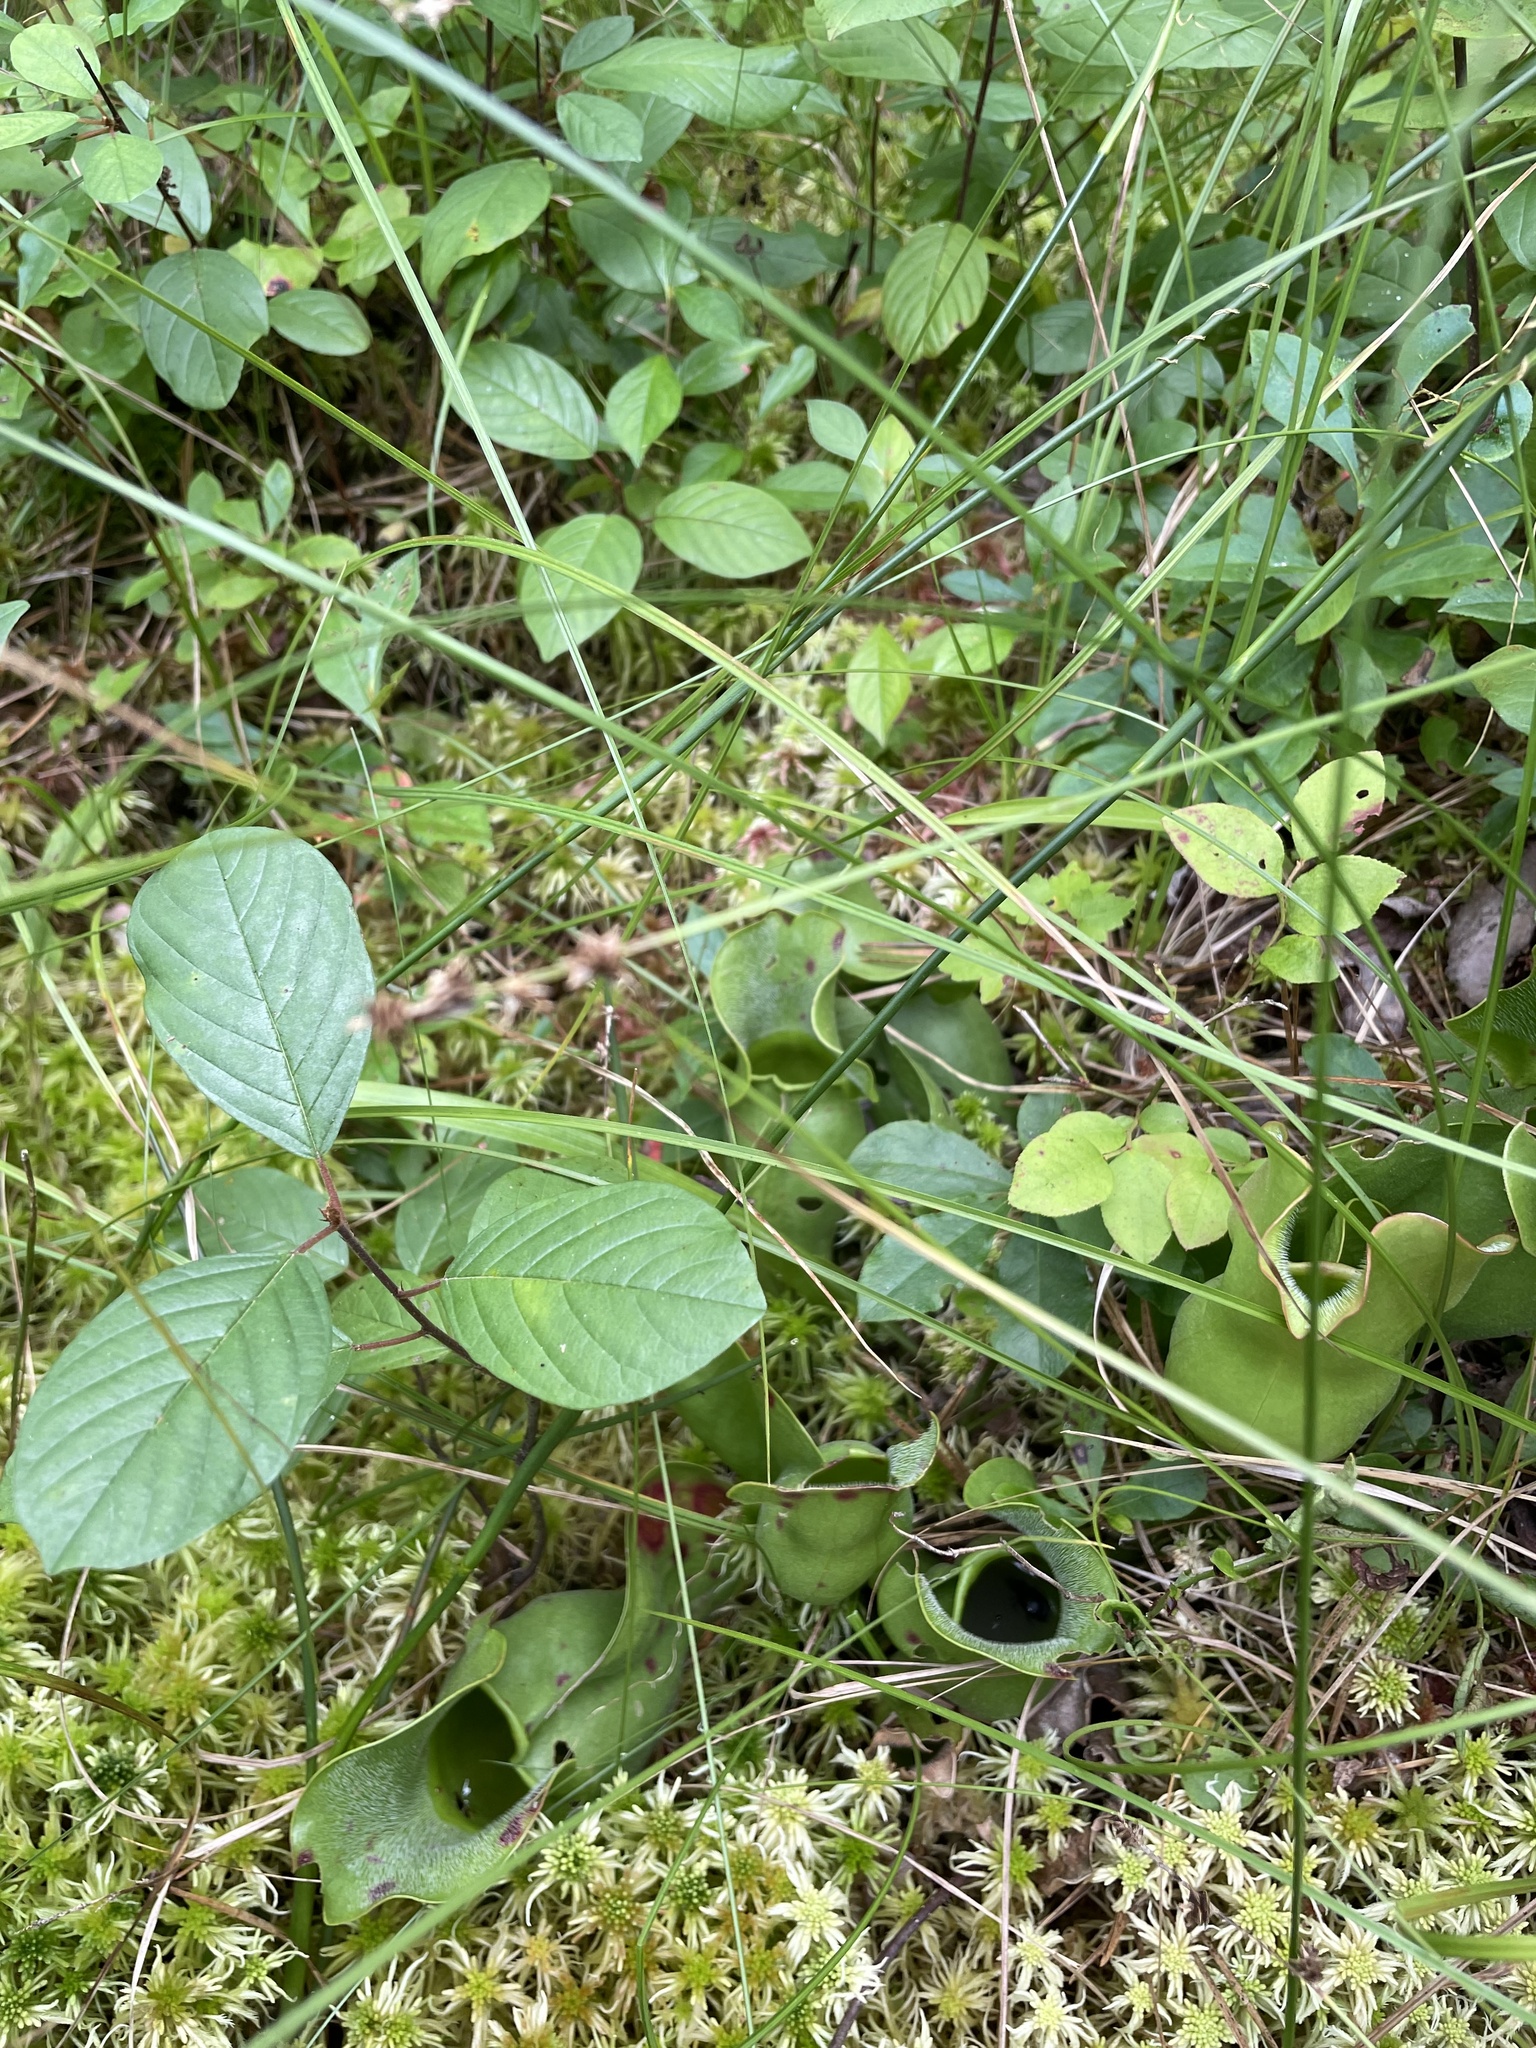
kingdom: Plantae
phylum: Tracheophyta
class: Magnoliopsida
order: Ericales
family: Sarraceniaceae
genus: Sarracenia
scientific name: Sarracenia purpurea
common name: Pitcherplant
